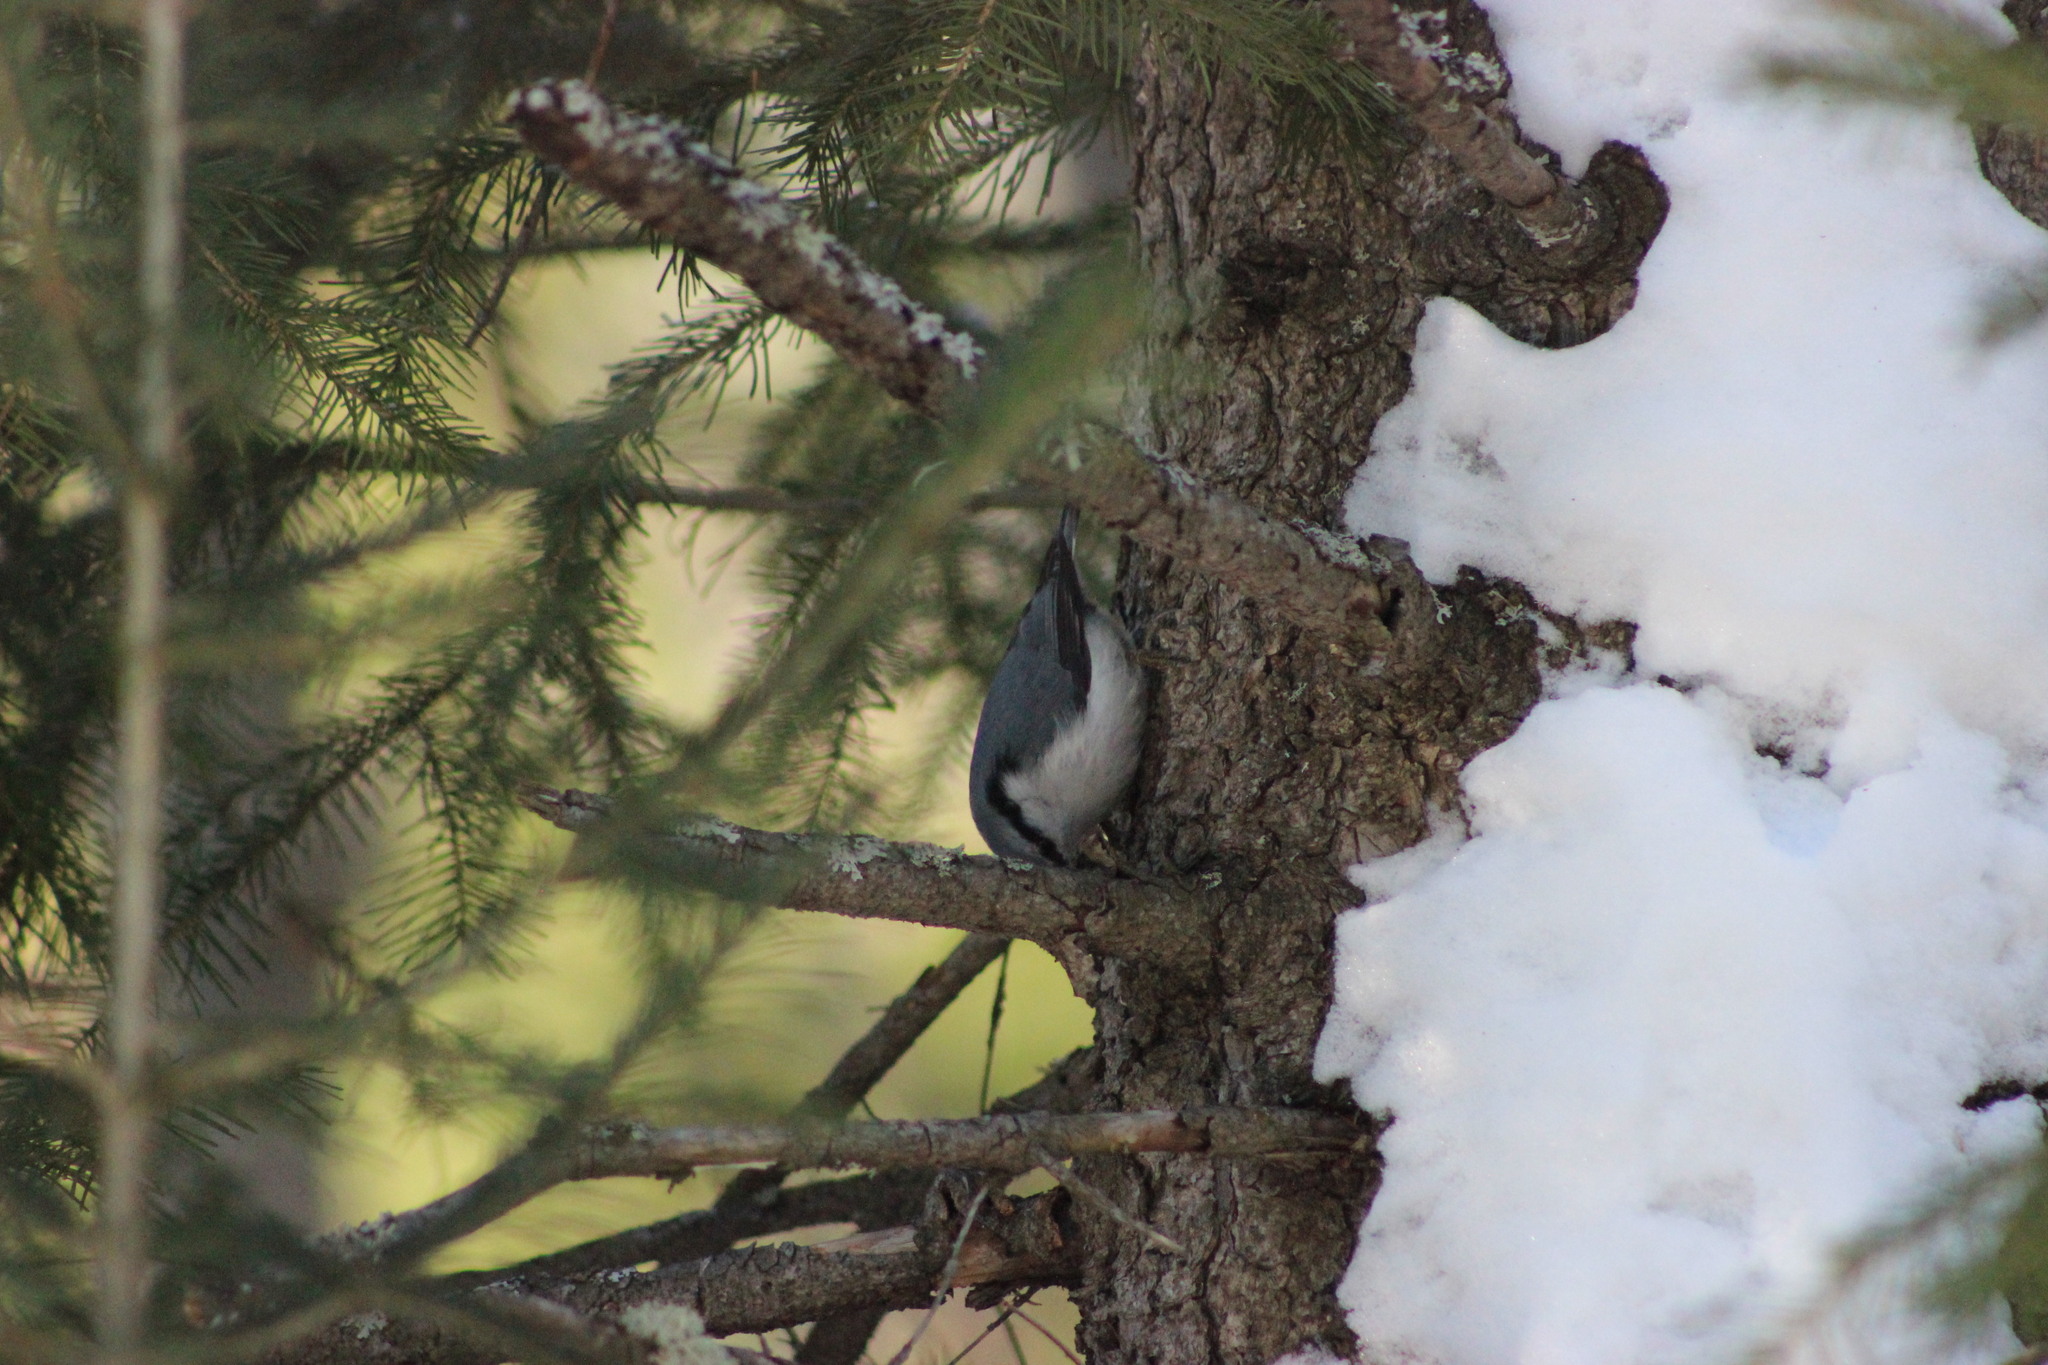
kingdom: Animalia
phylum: Chordata
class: Aves
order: Passeriformes
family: Sittidae
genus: Sitta
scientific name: Sitta europaea
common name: Eurasian nuthatch
